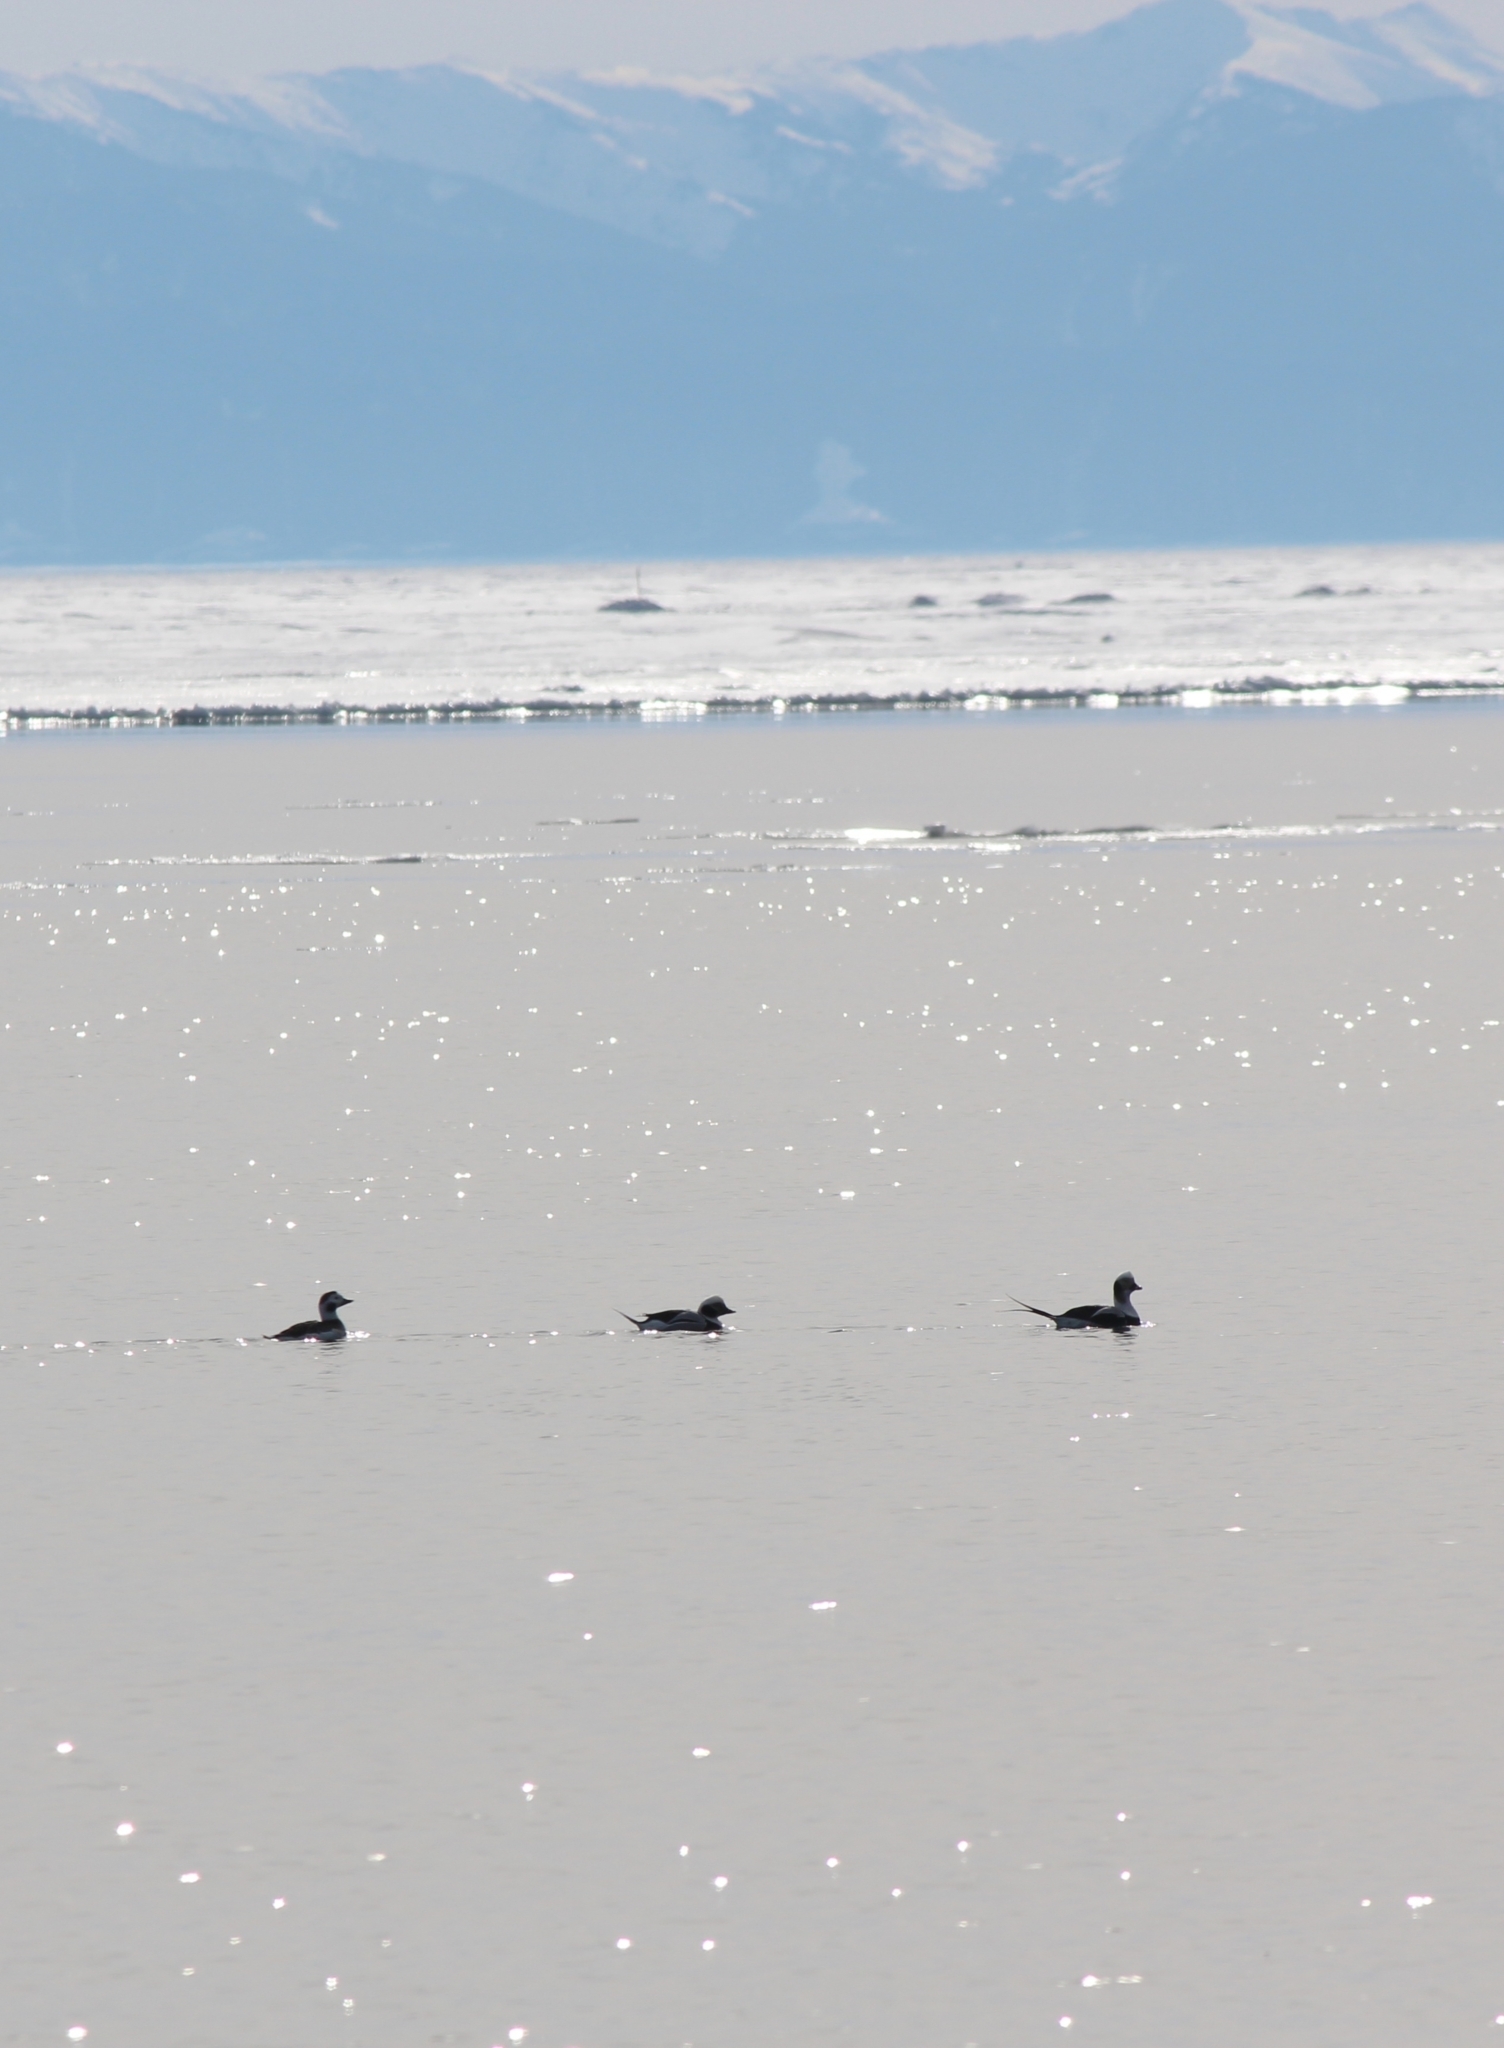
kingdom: Animalia
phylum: Chordata
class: Aves
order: Anseriformes
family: Anatidae
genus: Clangula
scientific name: Clangula hyemalis
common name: Long-tailed duck
